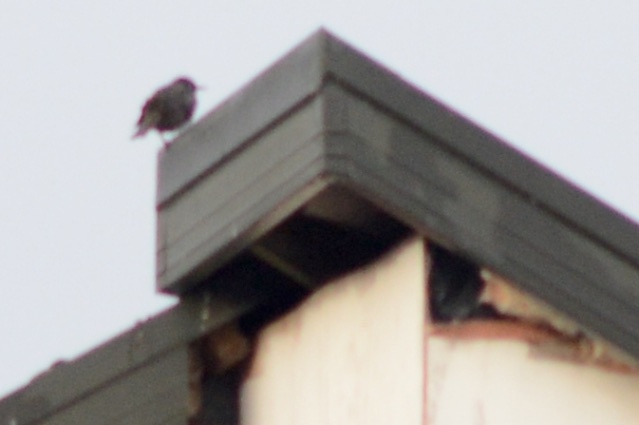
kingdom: Animalia
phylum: Chordata
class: Aves
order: Passeriformes
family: Turdidae
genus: Turdus
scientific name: Turdus merula
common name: Common blackbird
